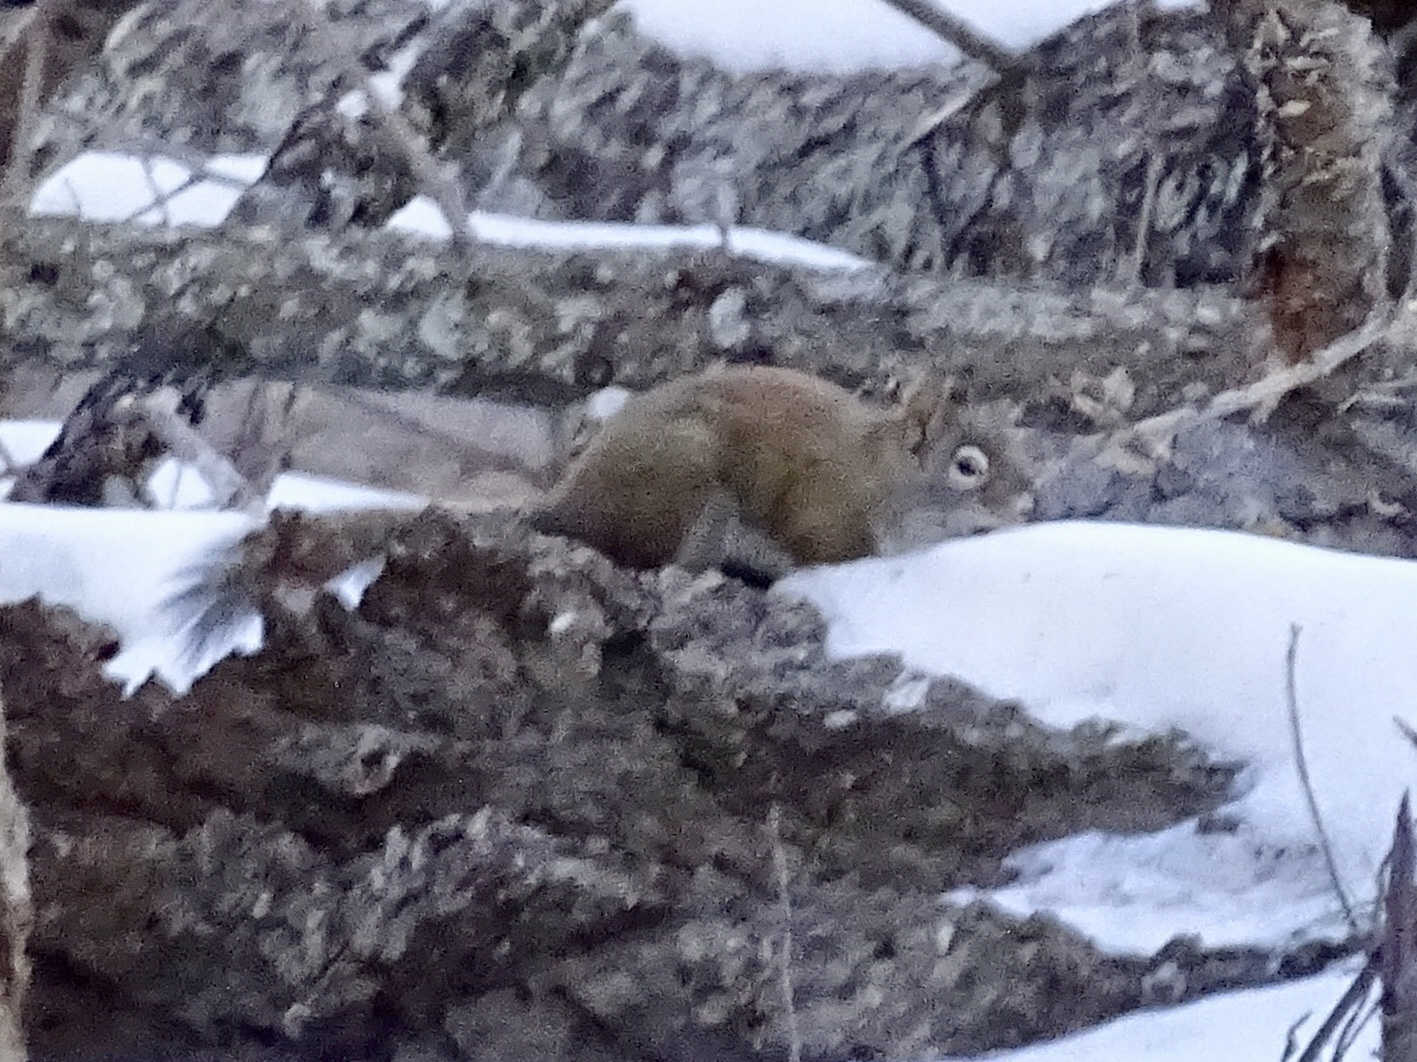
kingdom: Animalia
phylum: Chordata
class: Mammalia
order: Rodentia
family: Sciuridae
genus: Tamiasciurus
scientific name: Tamiasciurus hudsonicus
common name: Red squirrel
